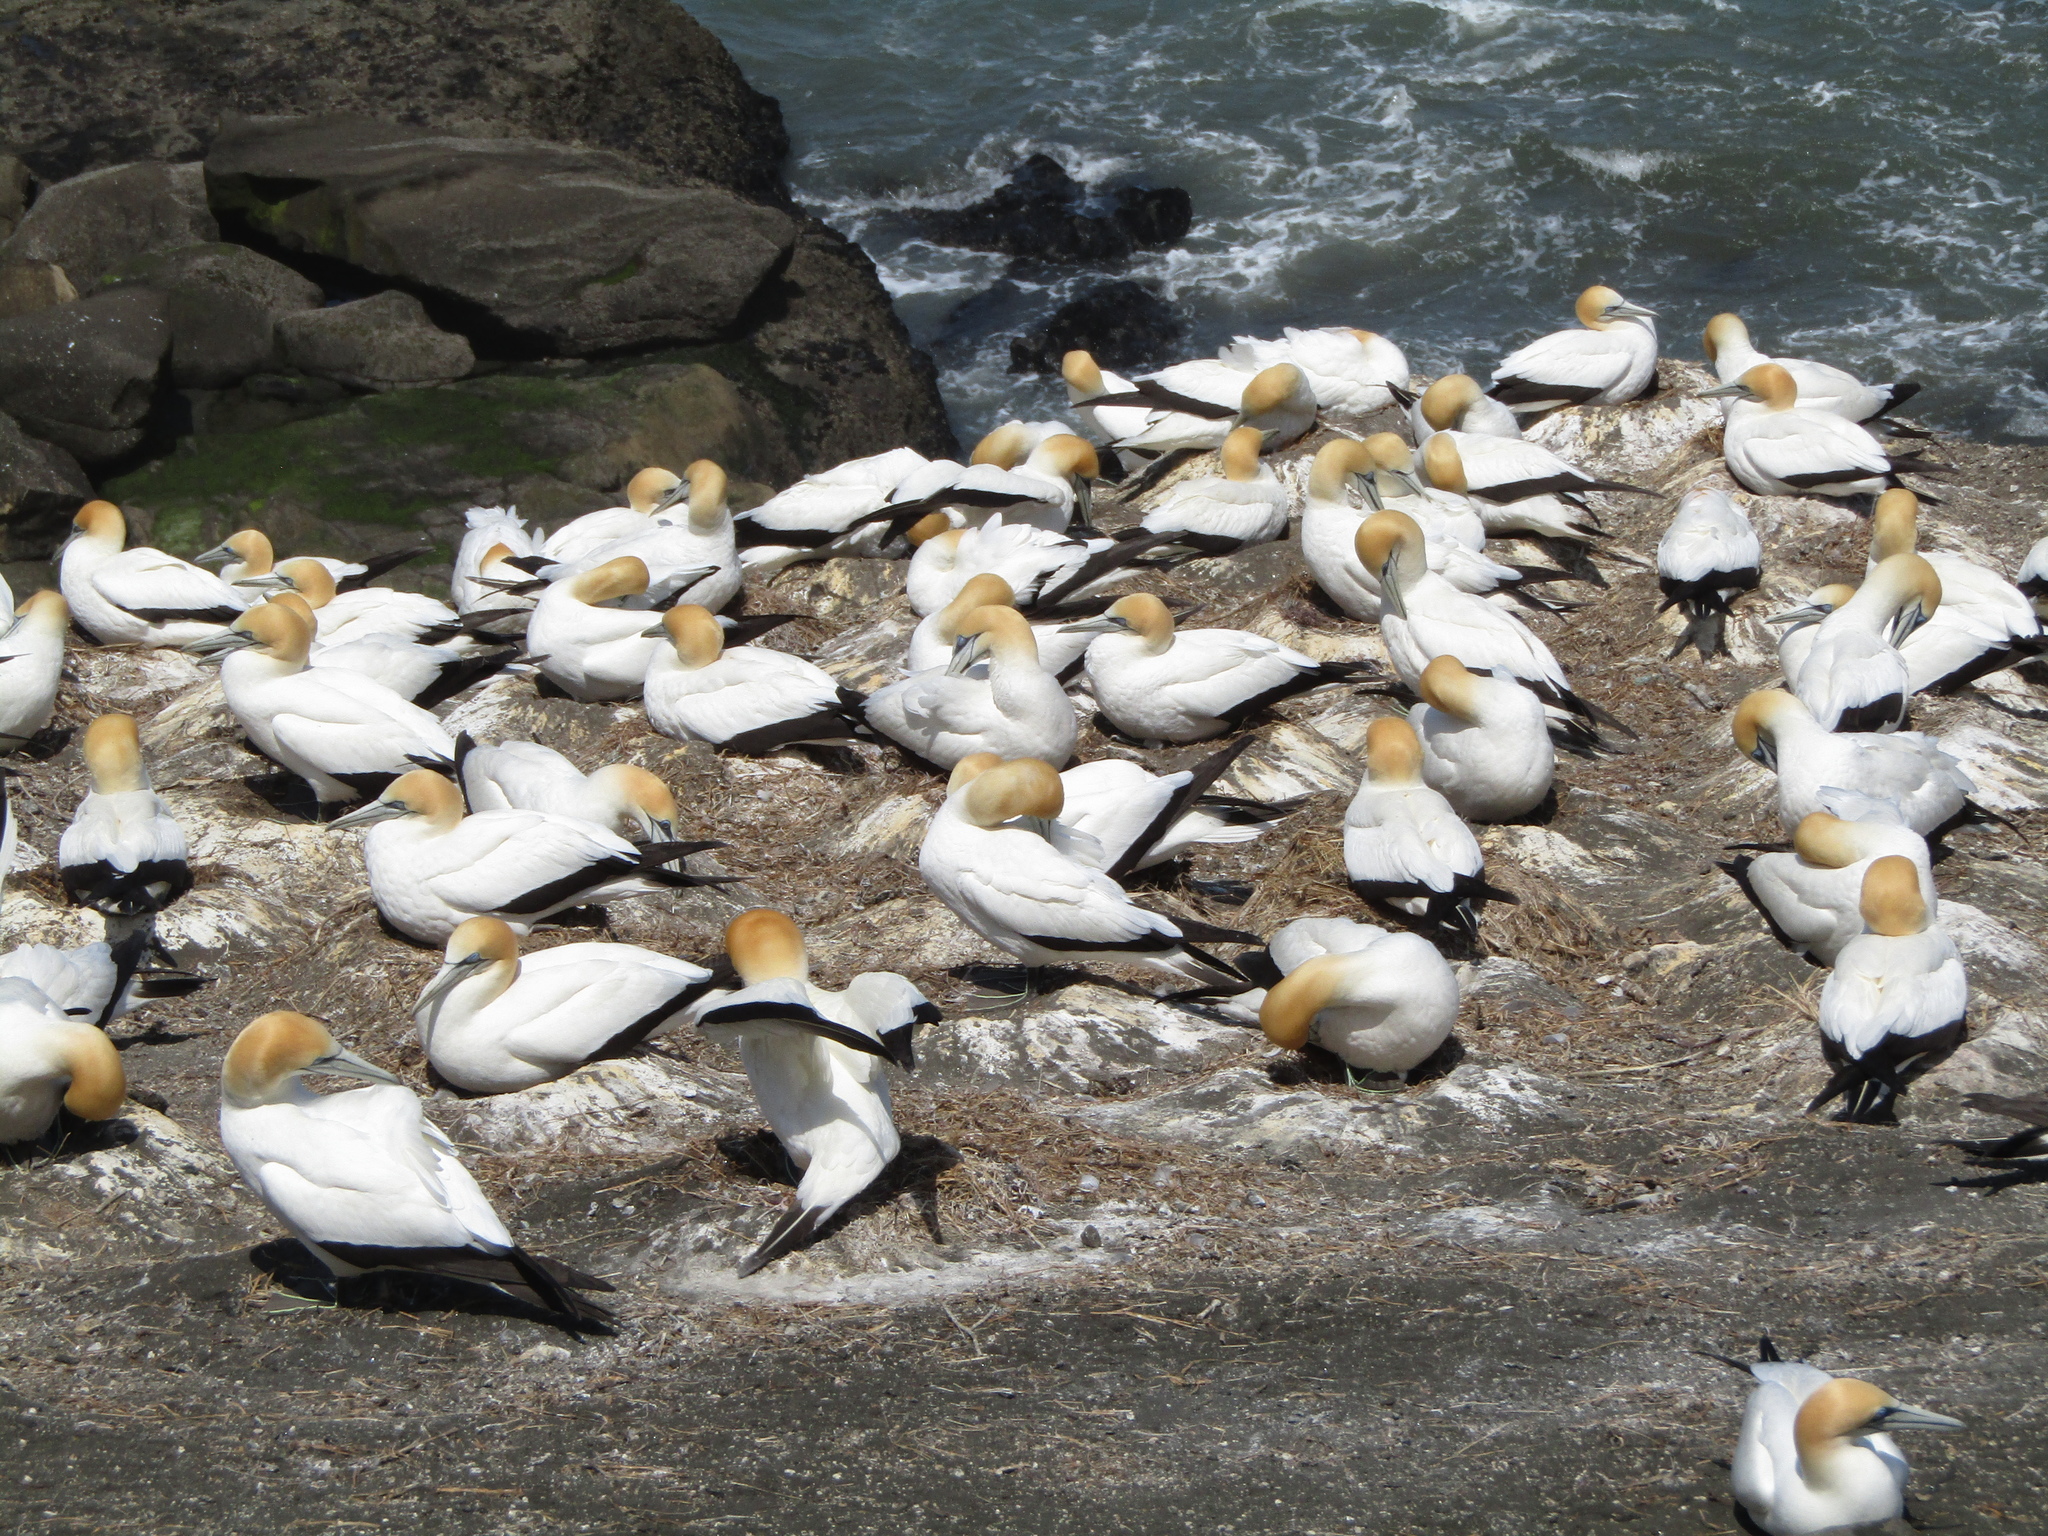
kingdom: Animalia
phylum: Chordata
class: Aves
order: Suliformes
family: Sulidae
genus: Morus
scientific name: Morus serrator
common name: Australasian gannet
